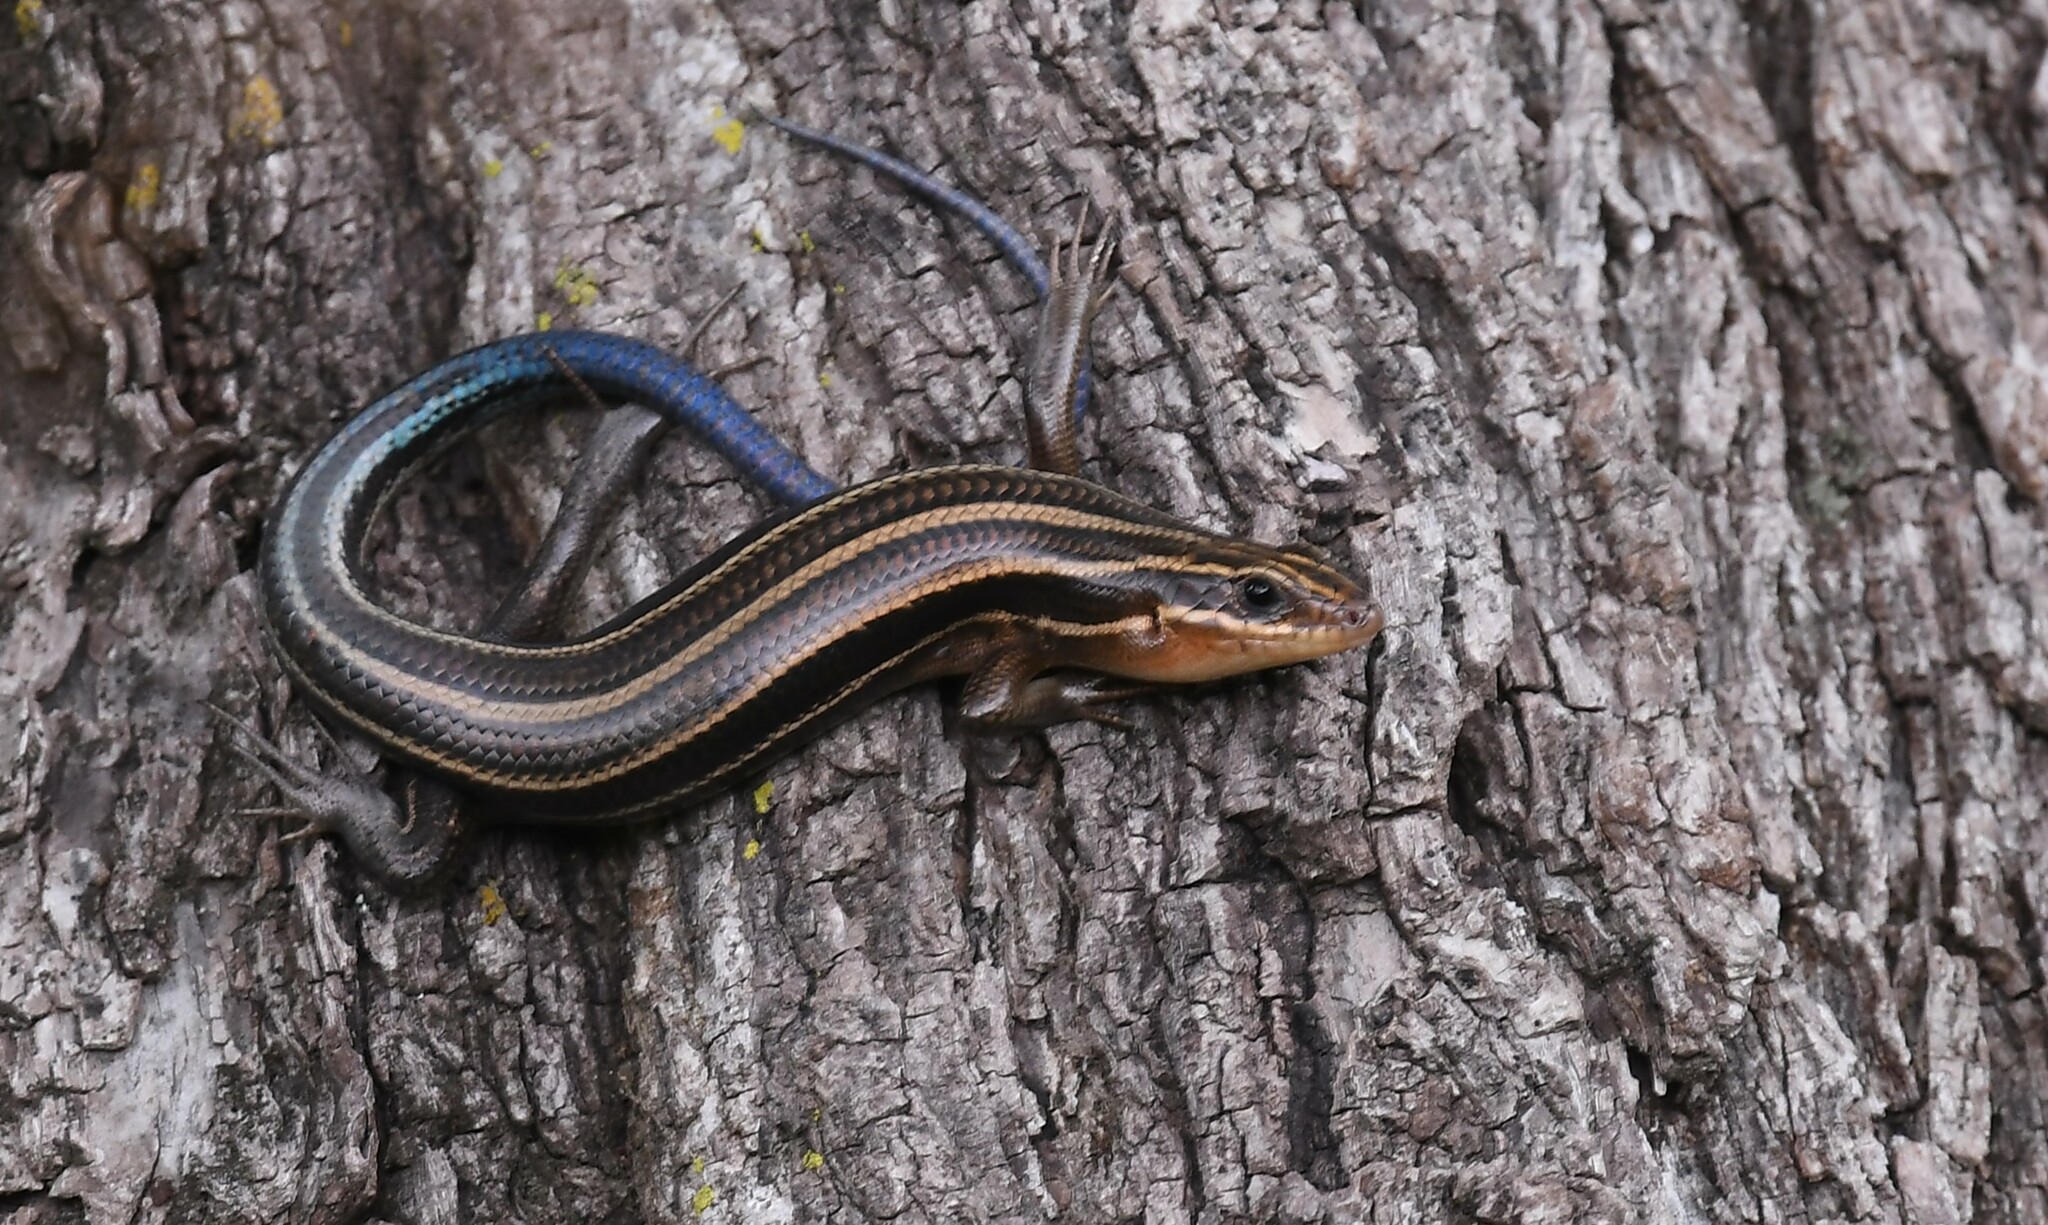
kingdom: Animalia
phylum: Chordata
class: Squamata
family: Scincidae
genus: Plestiodon
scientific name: Plestiodon fasciatus
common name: Five-lined skink
